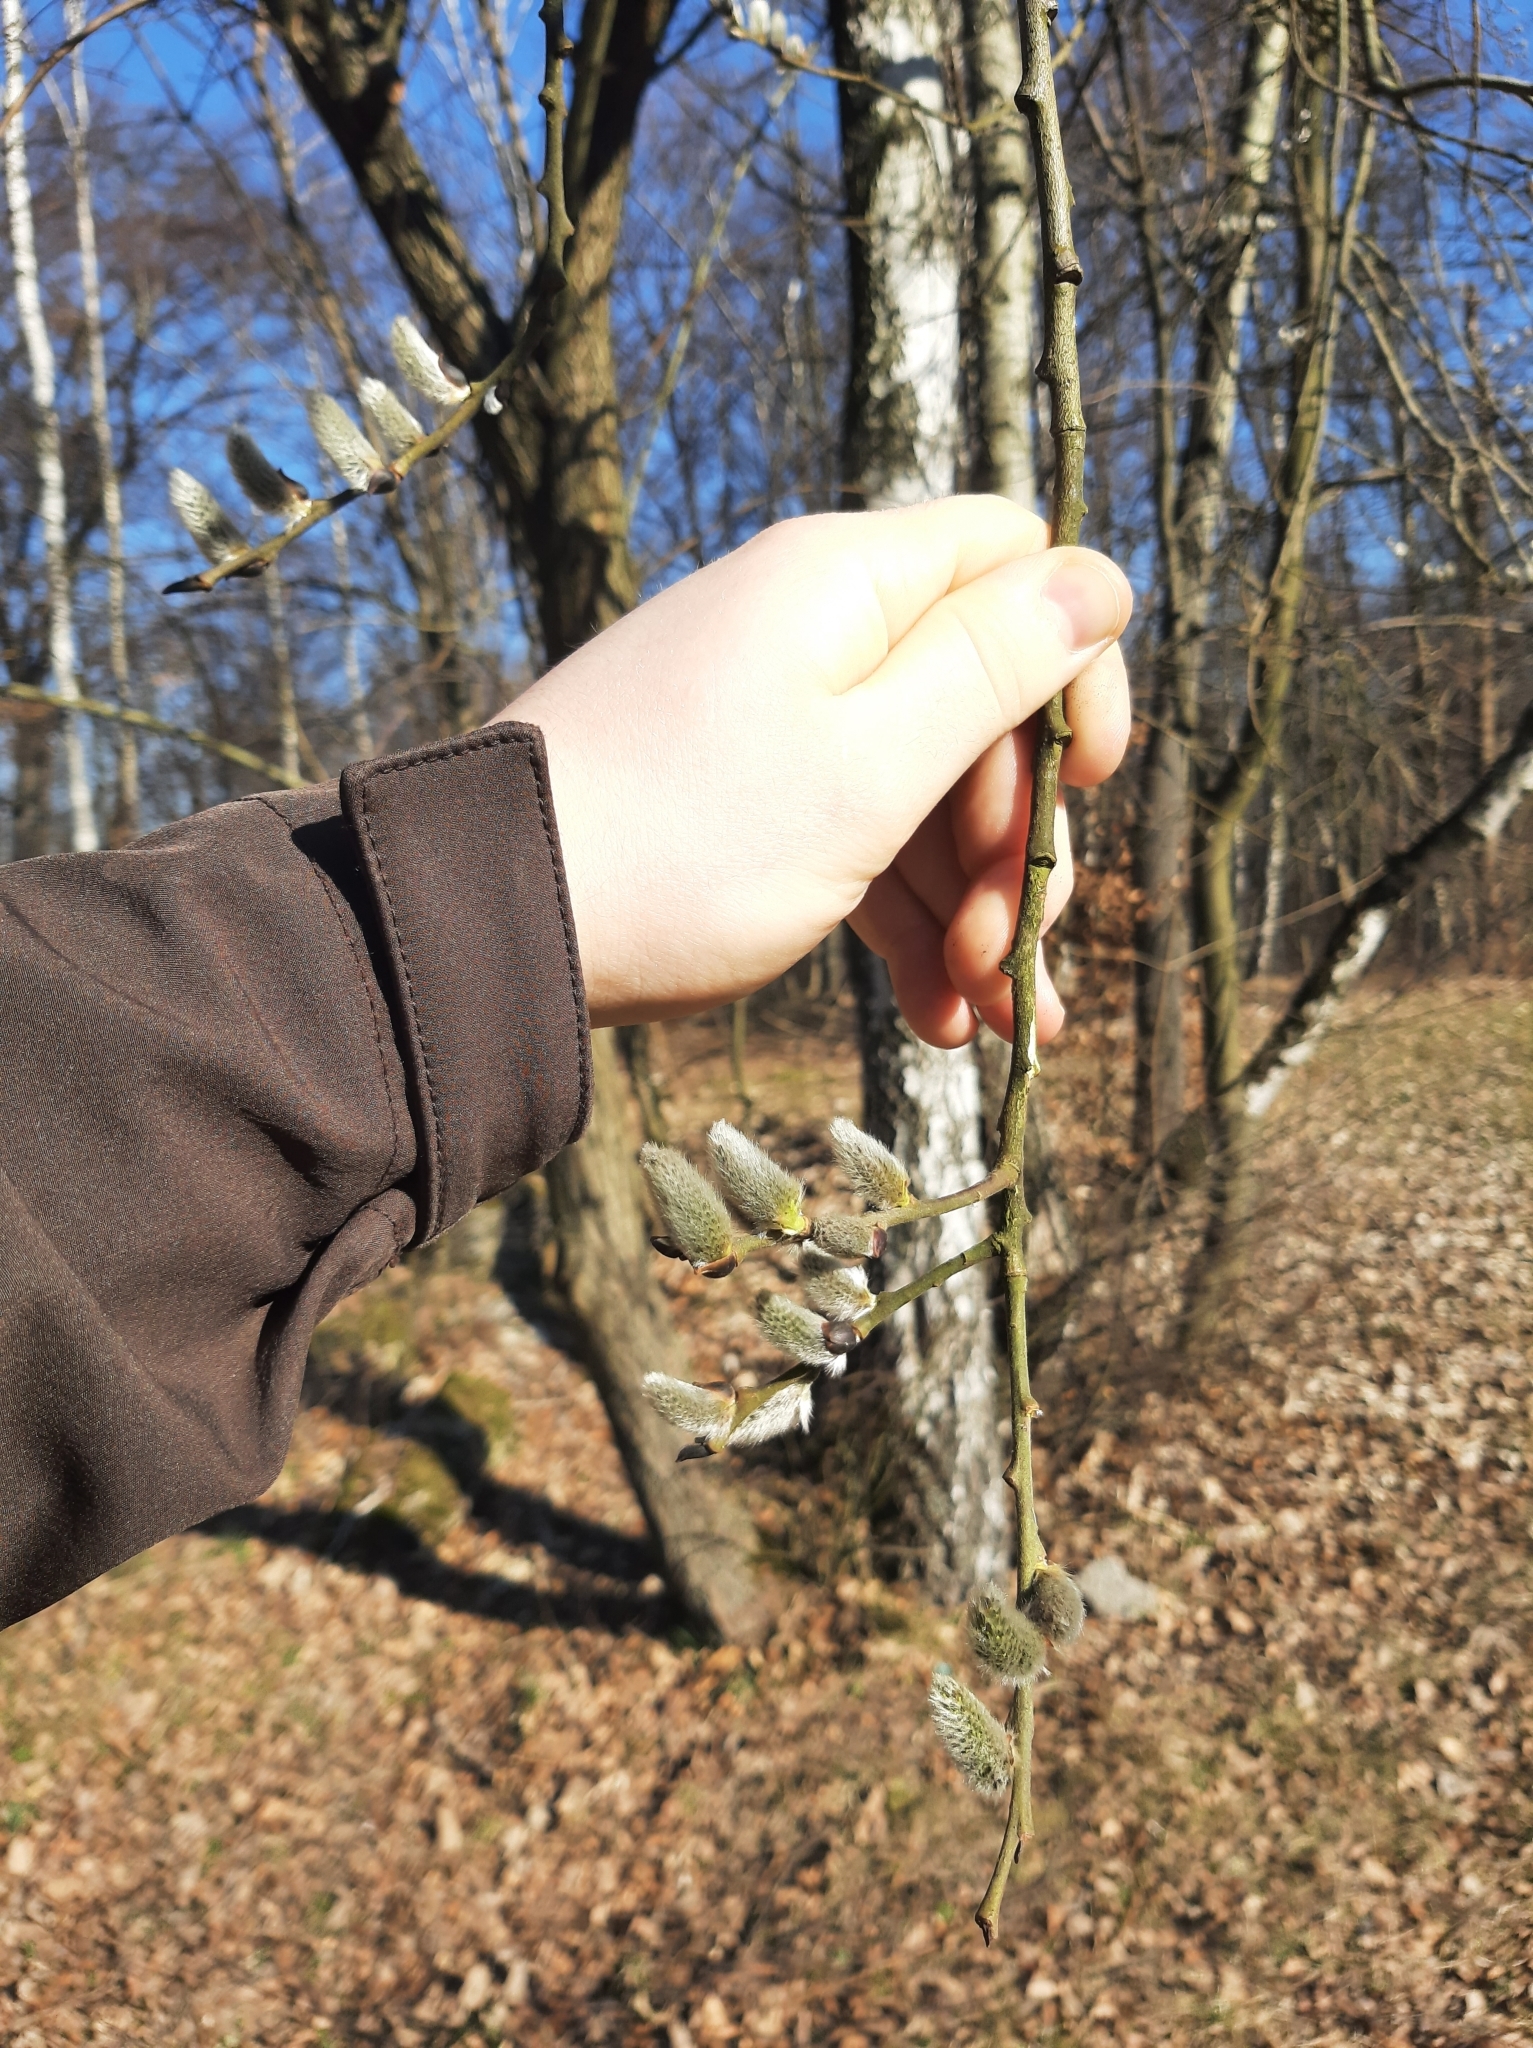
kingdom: Plantae
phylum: Tracheophyta
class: Magnoliopsida
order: Malpighiales
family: Salicaceae
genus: Salix
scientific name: Salix caprea
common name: Goat willow
